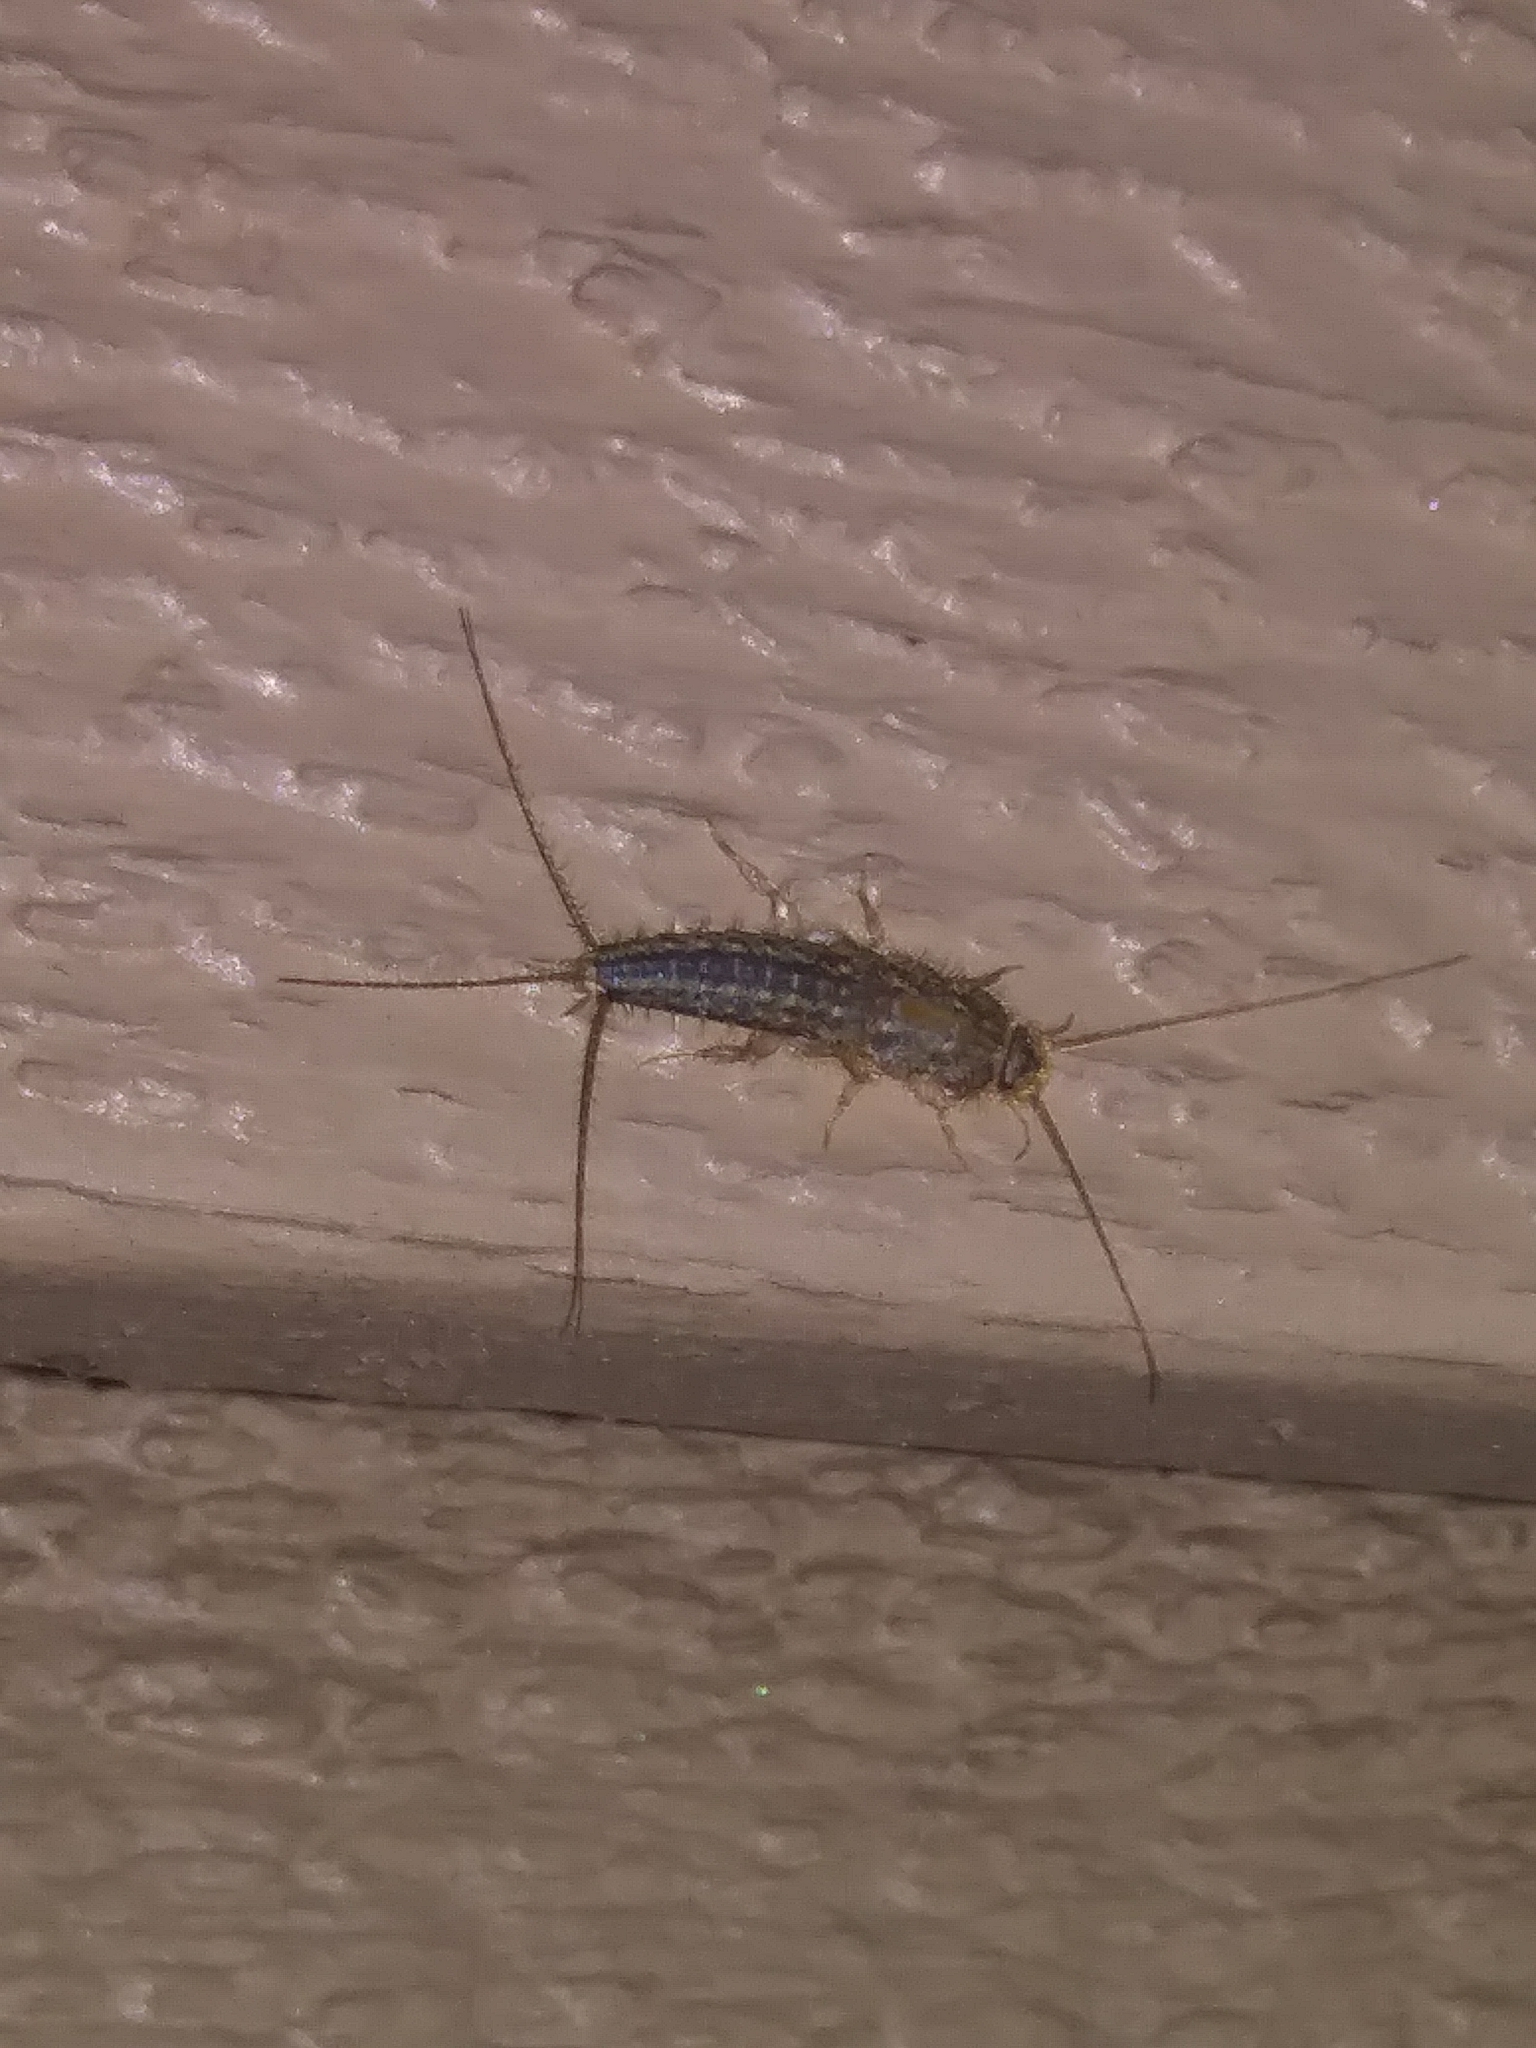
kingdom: Animalia
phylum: Arthropoda
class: Insecta
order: Zygentoma
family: Lepismatidae
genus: Ctenolepisma
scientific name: Ctenolepisma lineata
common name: Four-lined silverfish
